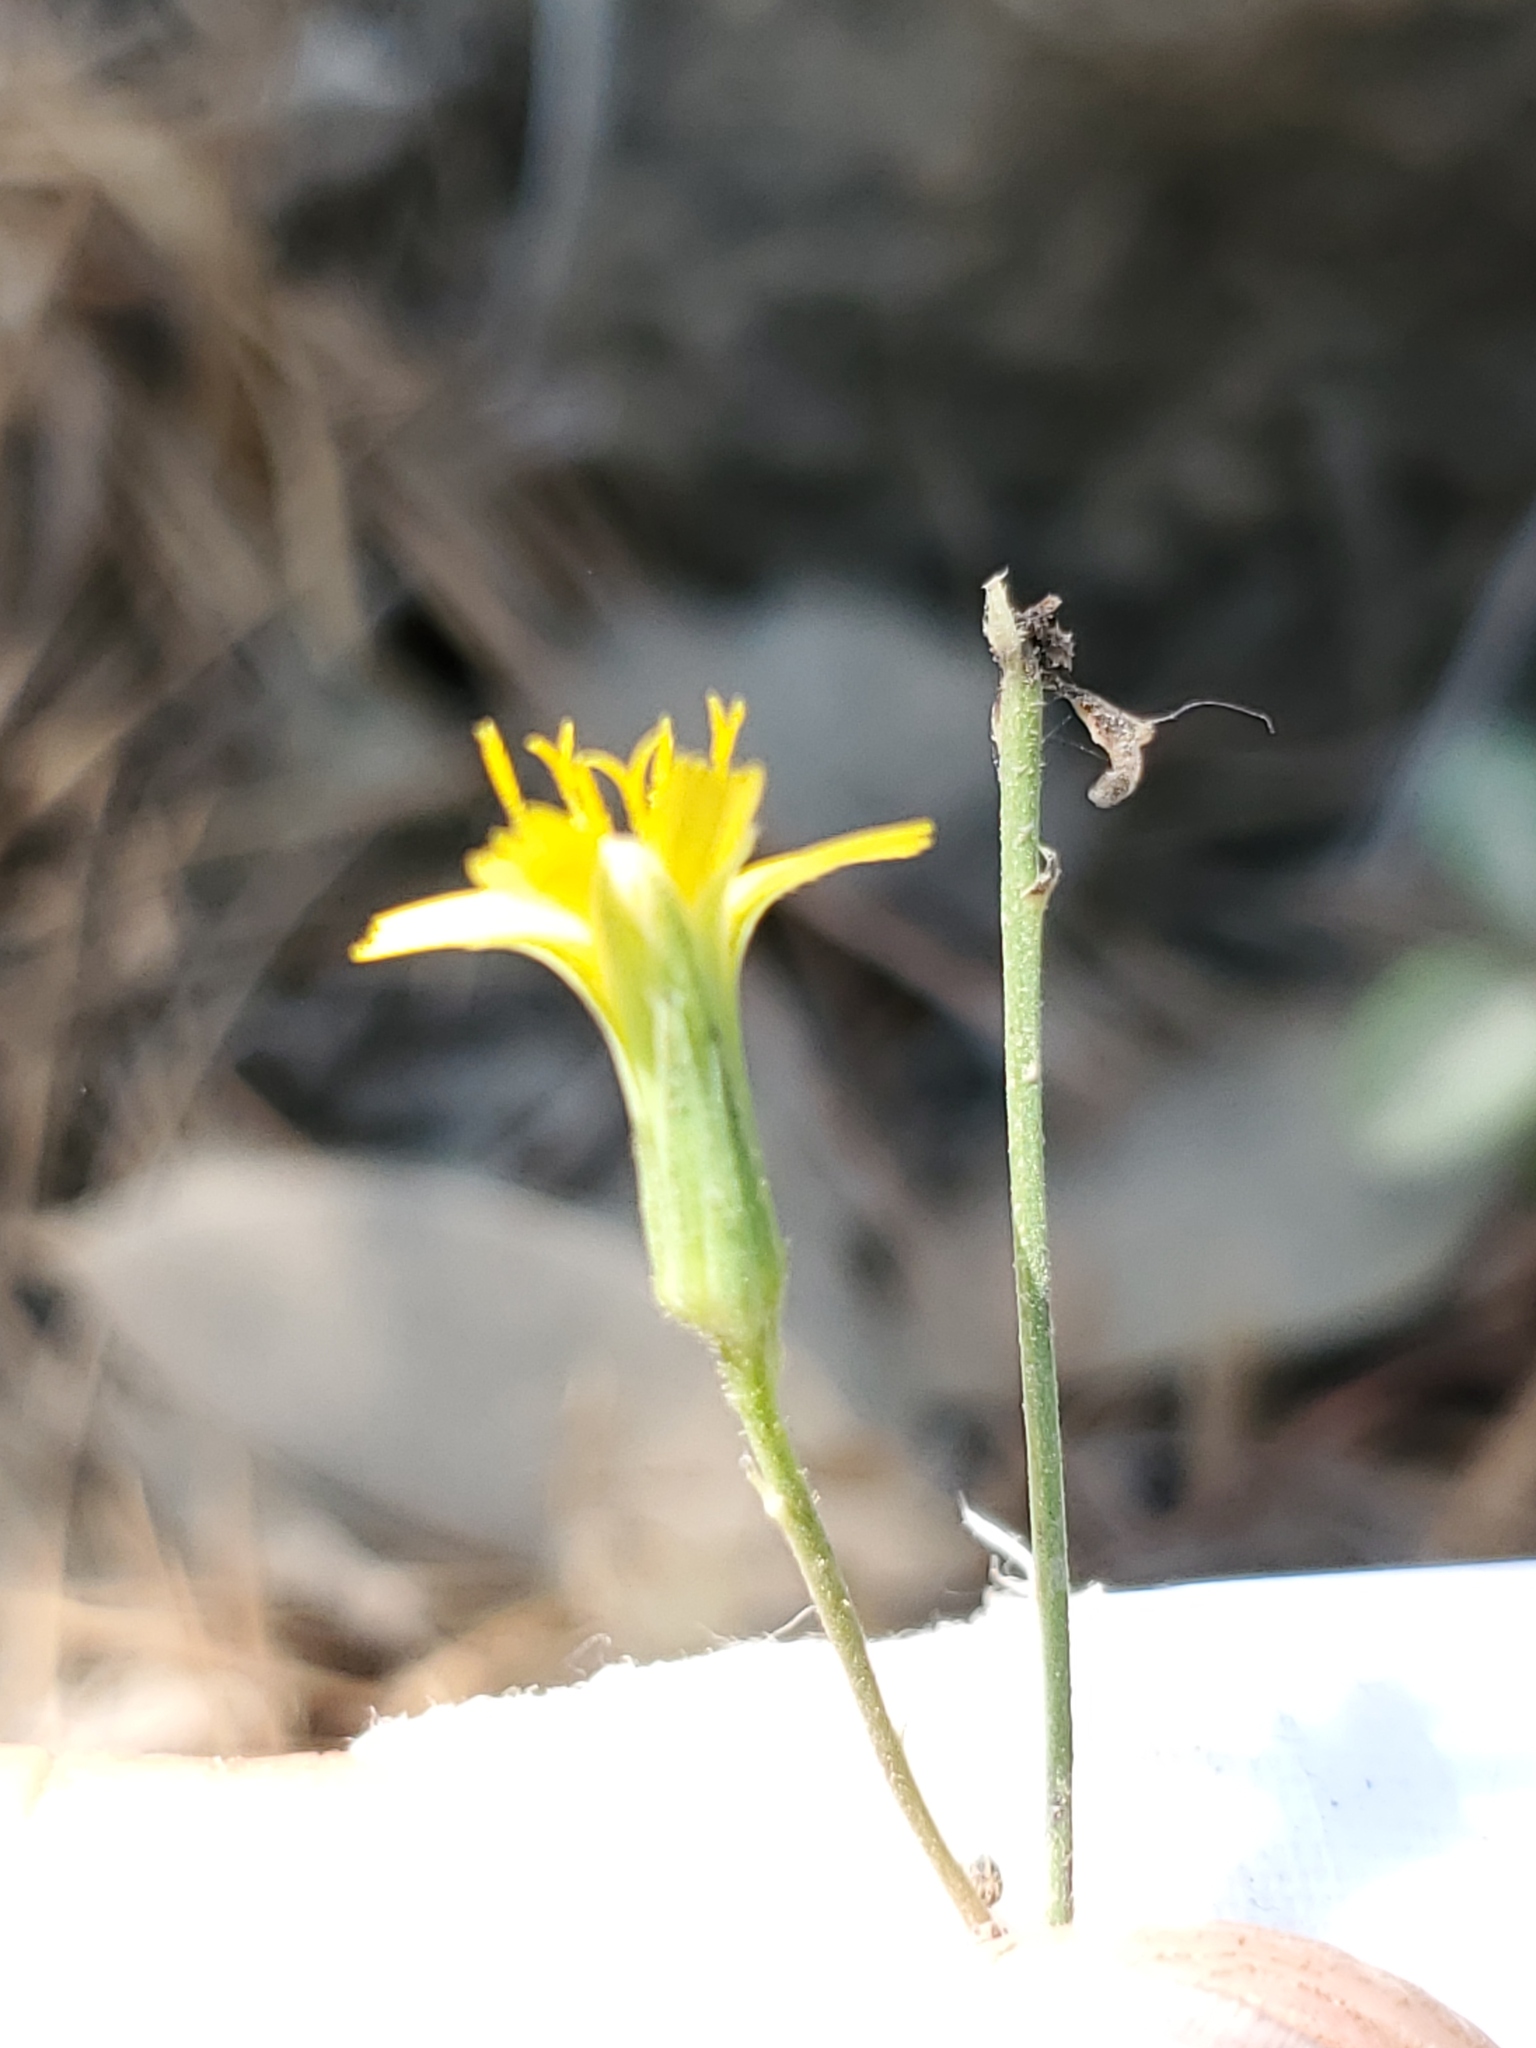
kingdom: Plantae
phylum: Tracheophyta
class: Magnoliopsida
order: Asterales
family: Asteraceae
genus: Hieracium
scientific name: Hieracium bolanderi
